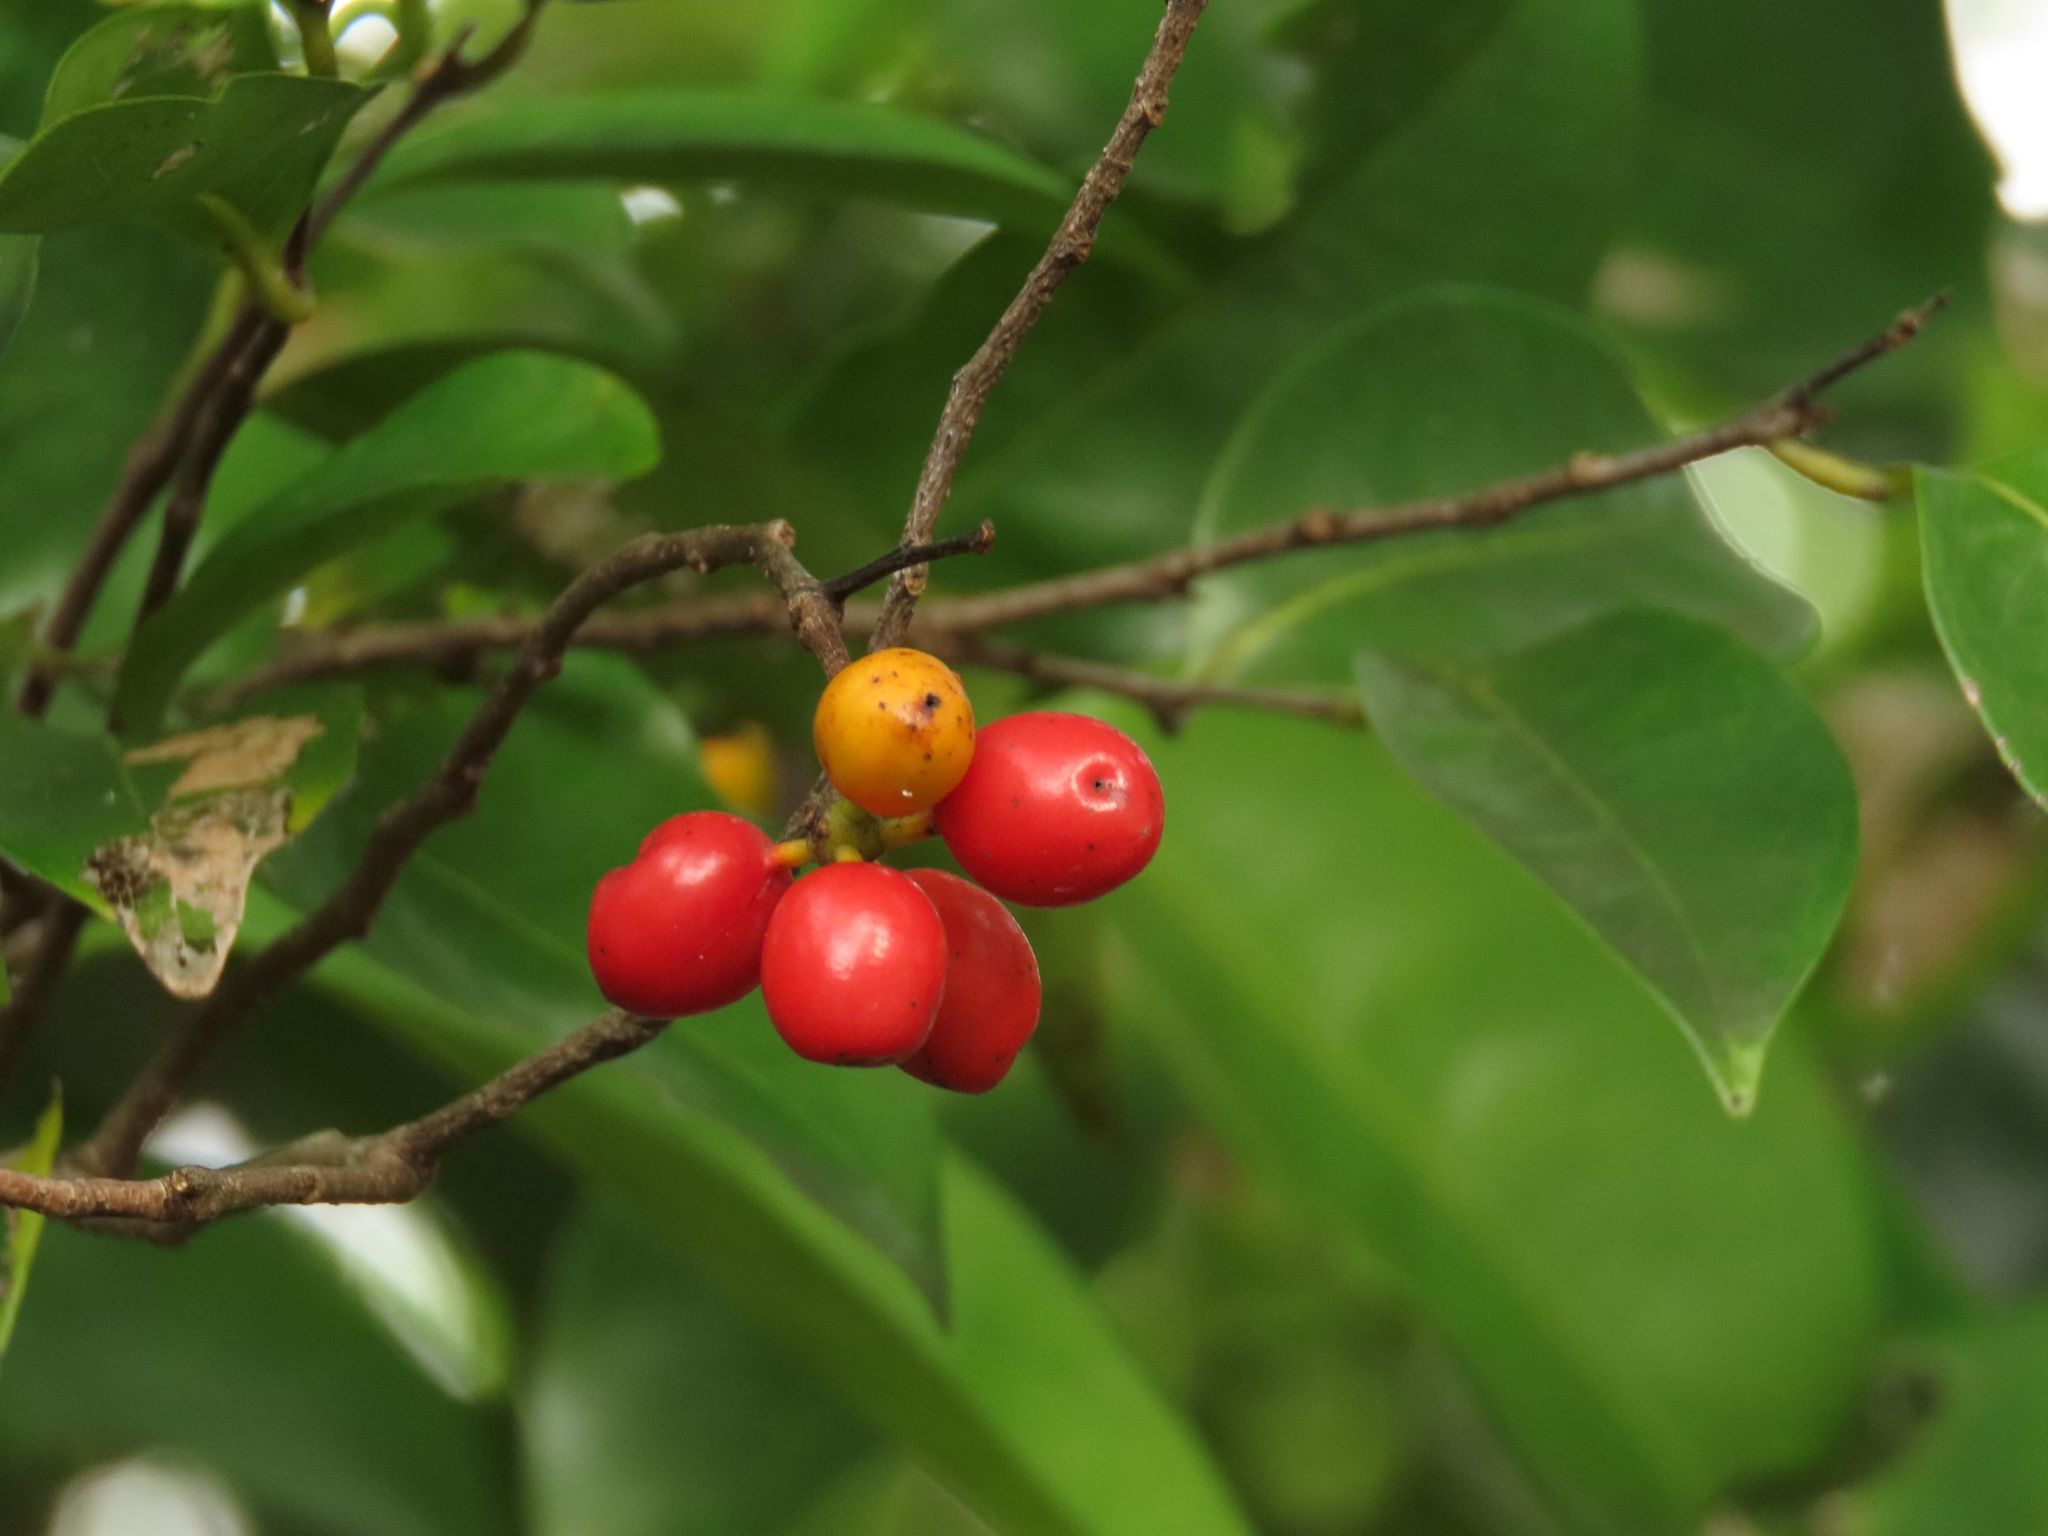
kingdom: Plantae
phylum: Tracheophyta
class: Magnoliopsida
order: Magnoliales
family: Annonaceae
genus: Hubera
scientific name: Hubera nitidissima
